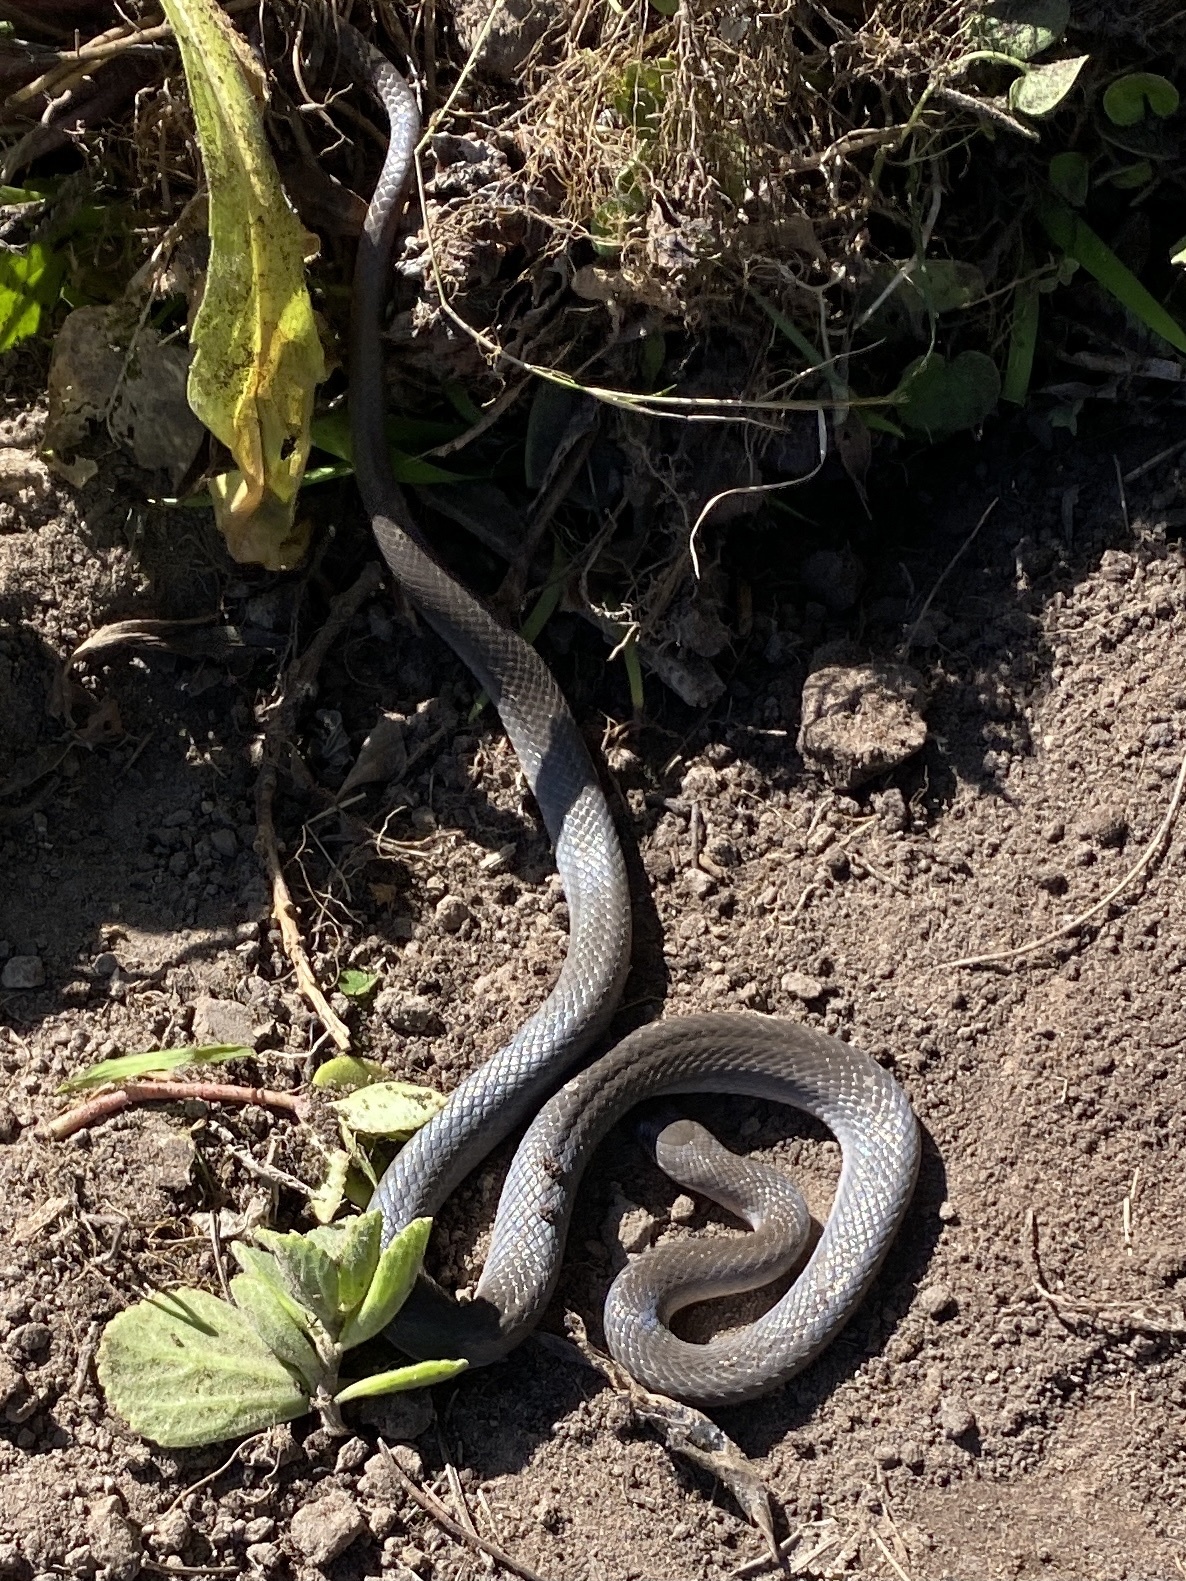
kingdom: Animalia
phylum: Chordata
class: Squamata
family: Lamprophiidae
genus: Lycodonomorphus
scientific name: Lycodonomorphus rufulus
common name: Brown water snake
